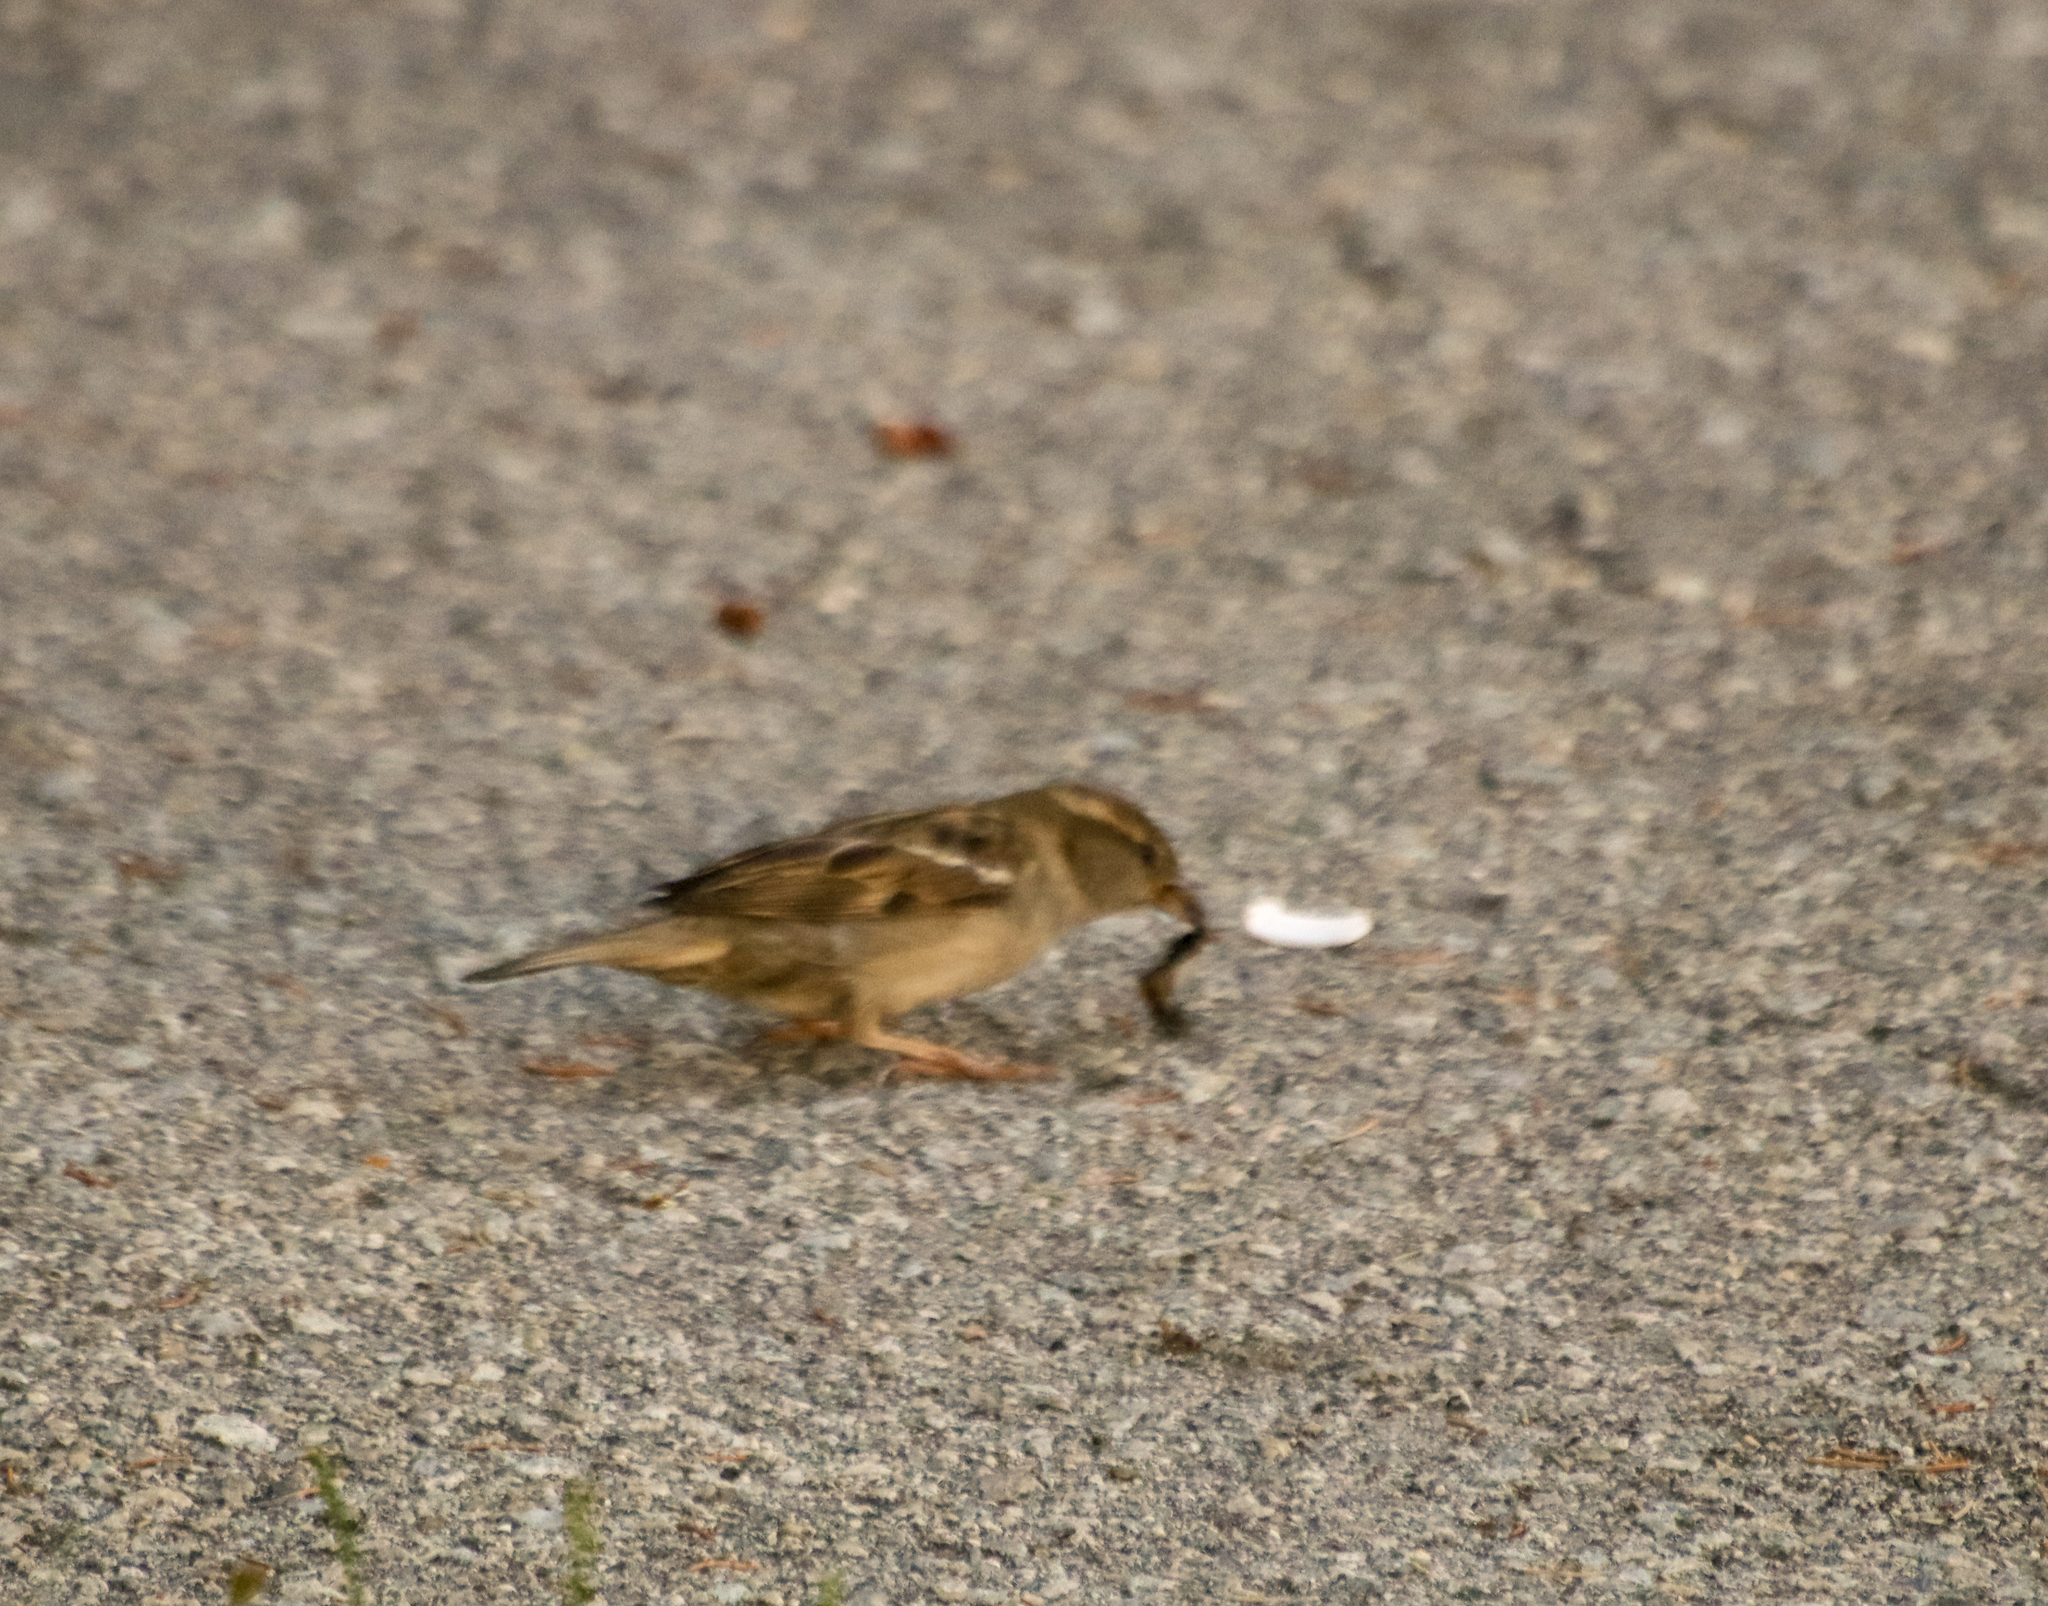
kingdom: Animalia
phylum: Chordata
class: Aves
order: Passeriformes
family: Passeridae
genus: Passer
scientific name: Passer domesticus
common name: House sparrow
